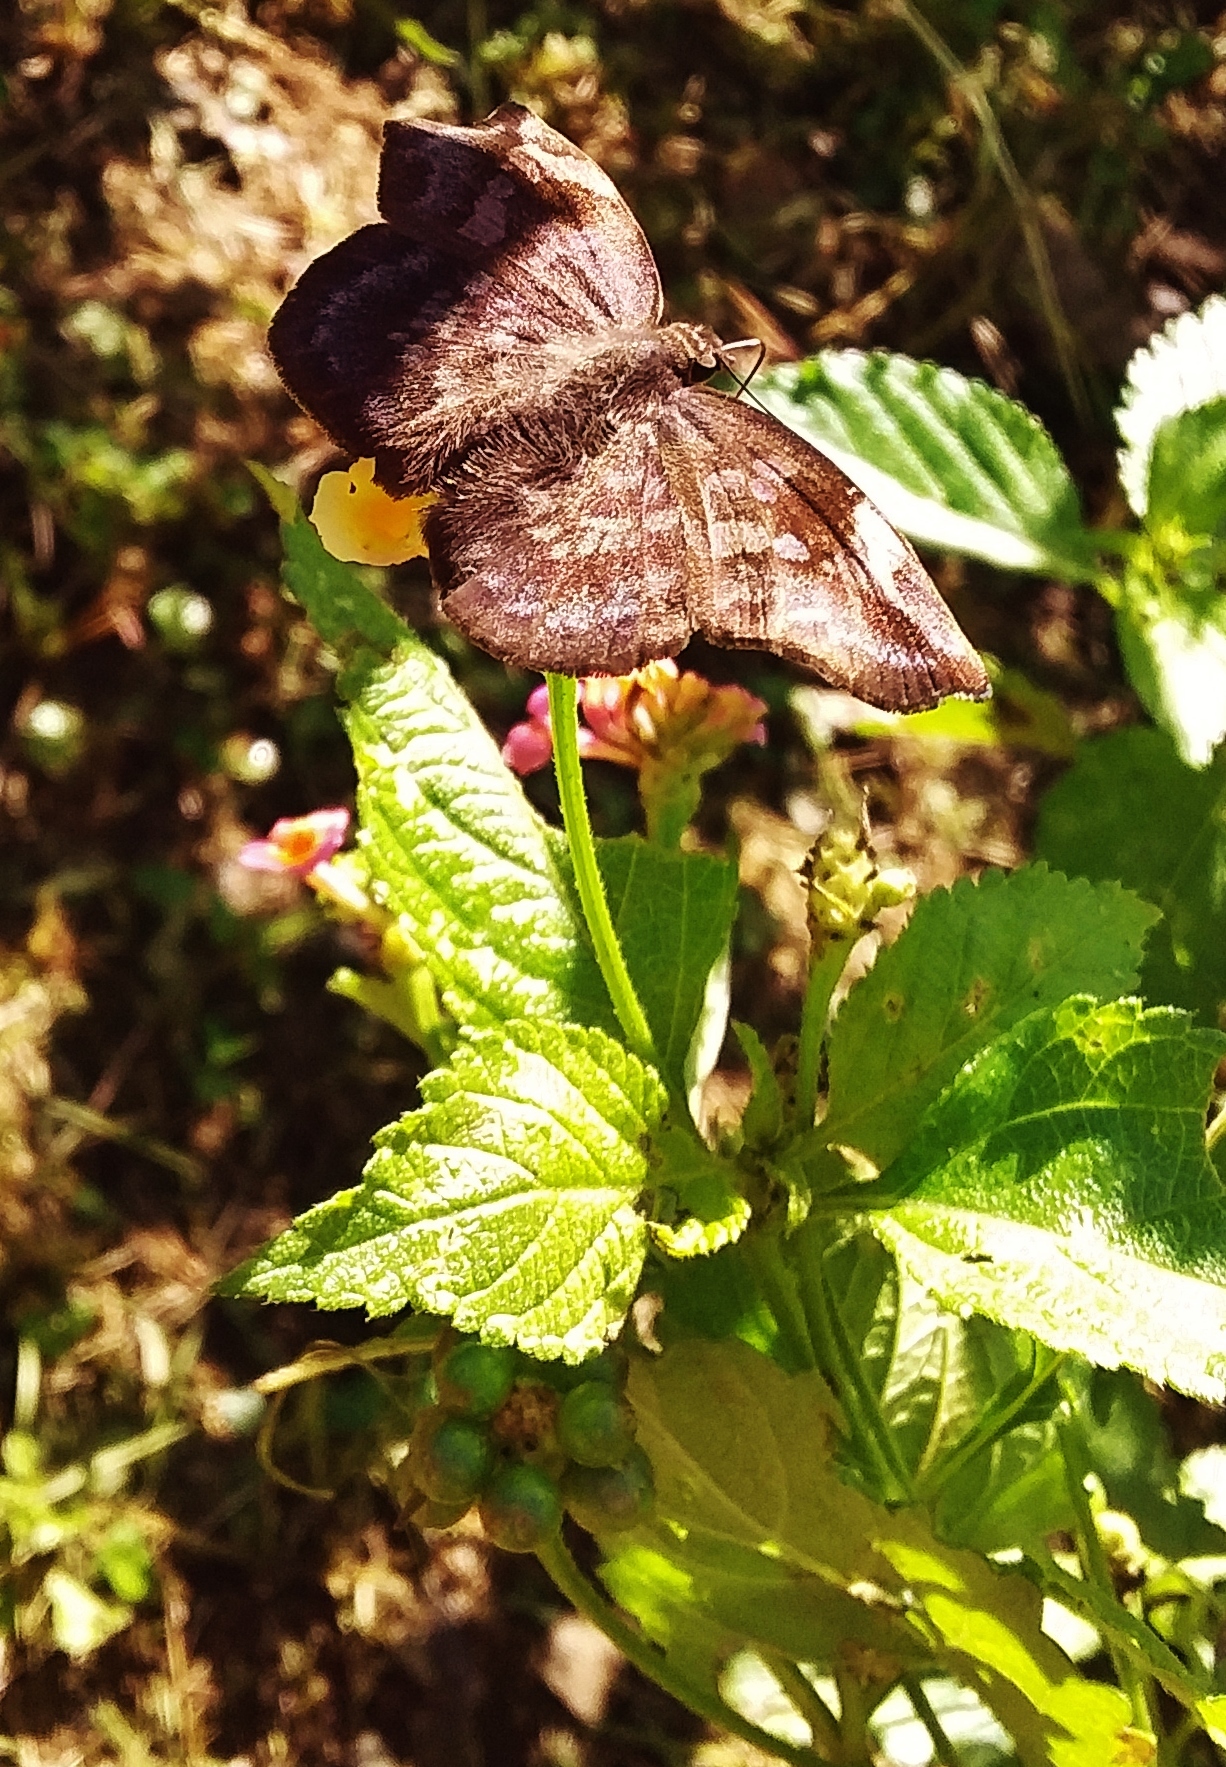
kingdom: Animalia
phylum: Arthropoda
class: Insecta
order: Lepidoptera
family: Hesperiidae
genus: Achlyodes
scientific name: Achlyodes thraso
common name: Sickle-winged skipper
